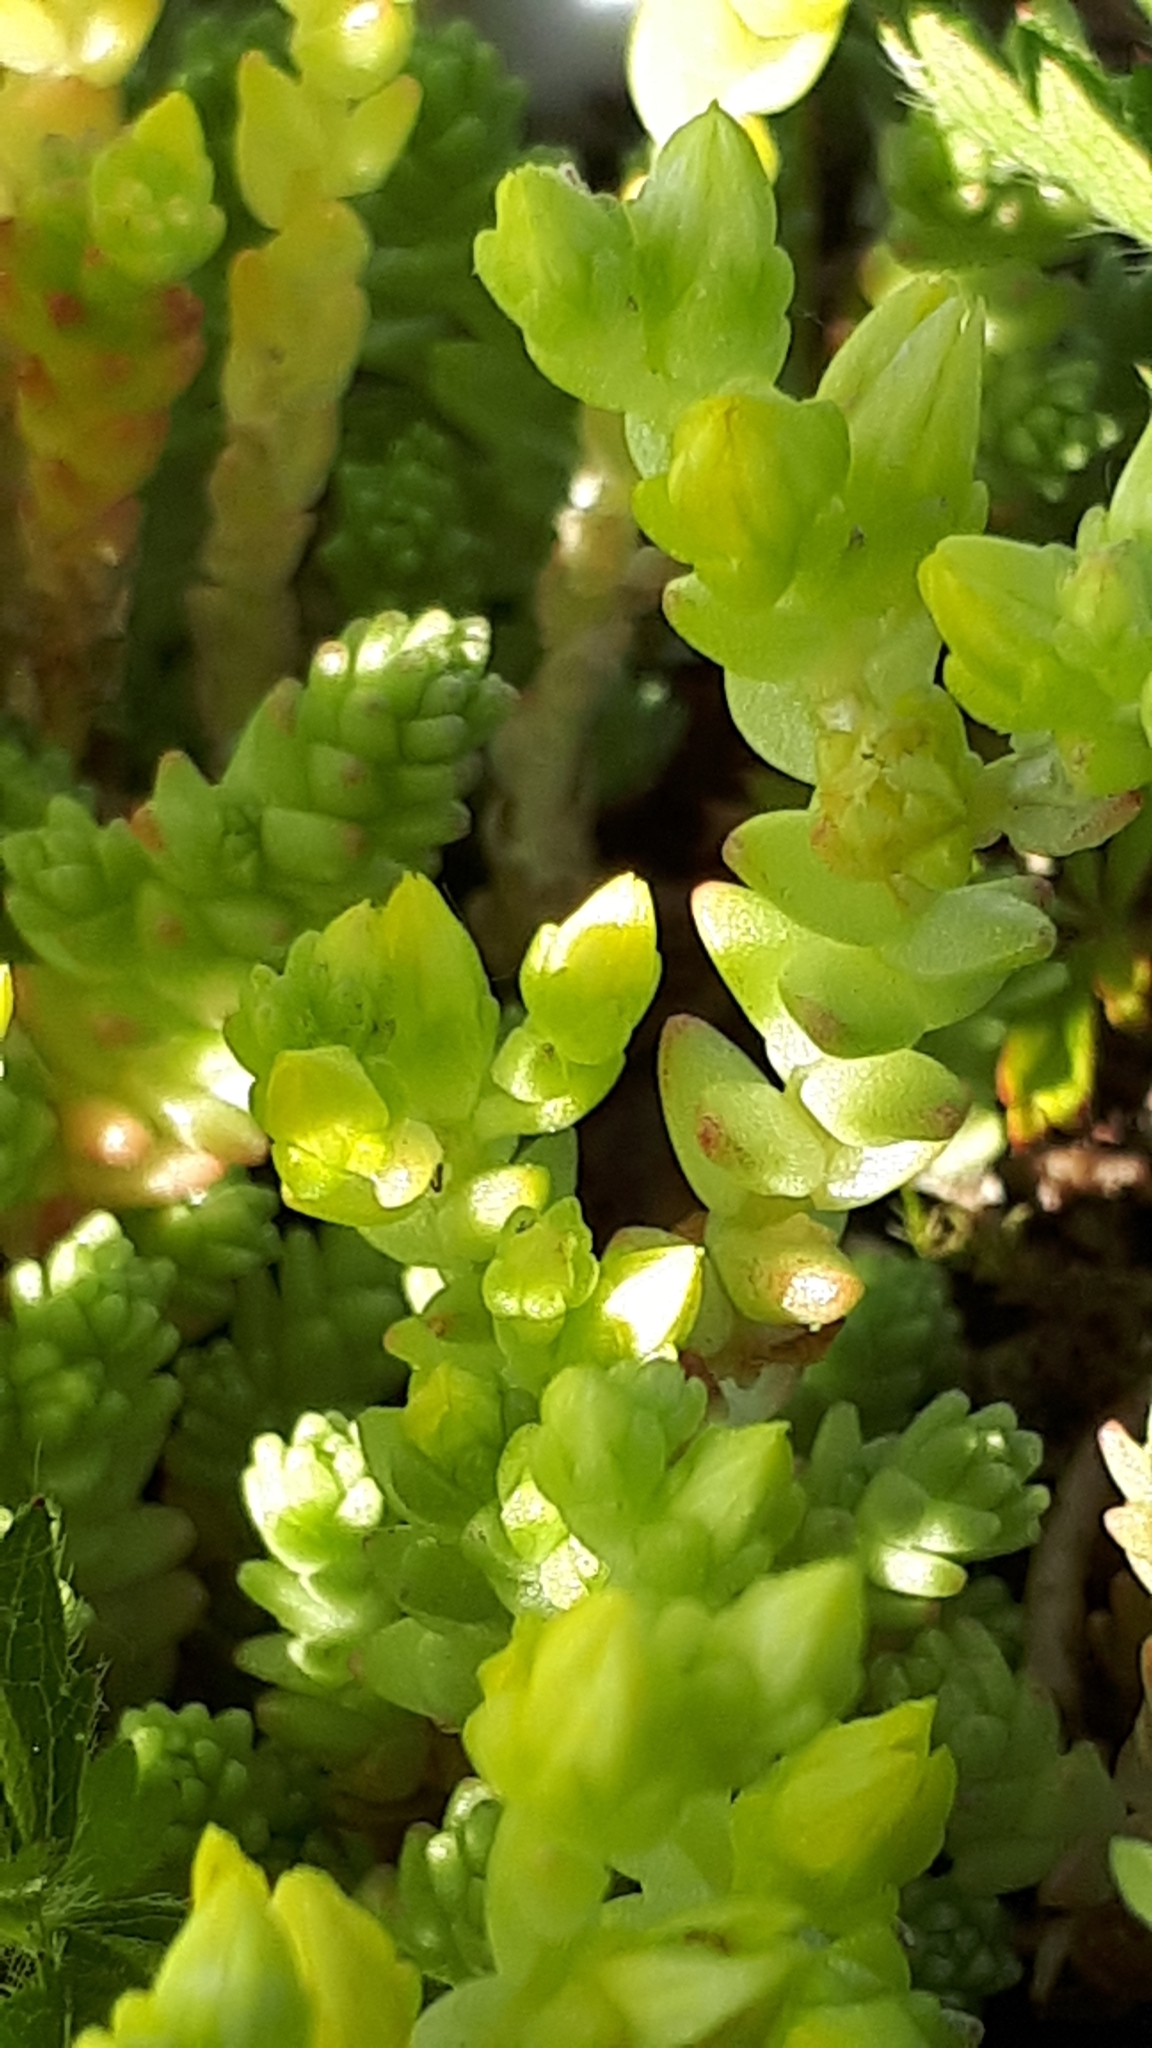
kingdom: Plantae
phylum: Tracheophyta
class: Magnoliopsida
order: Saxifragales
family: Crassulaceae
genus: Sedum
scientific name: Sedum acre
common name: Biting stonecrop
